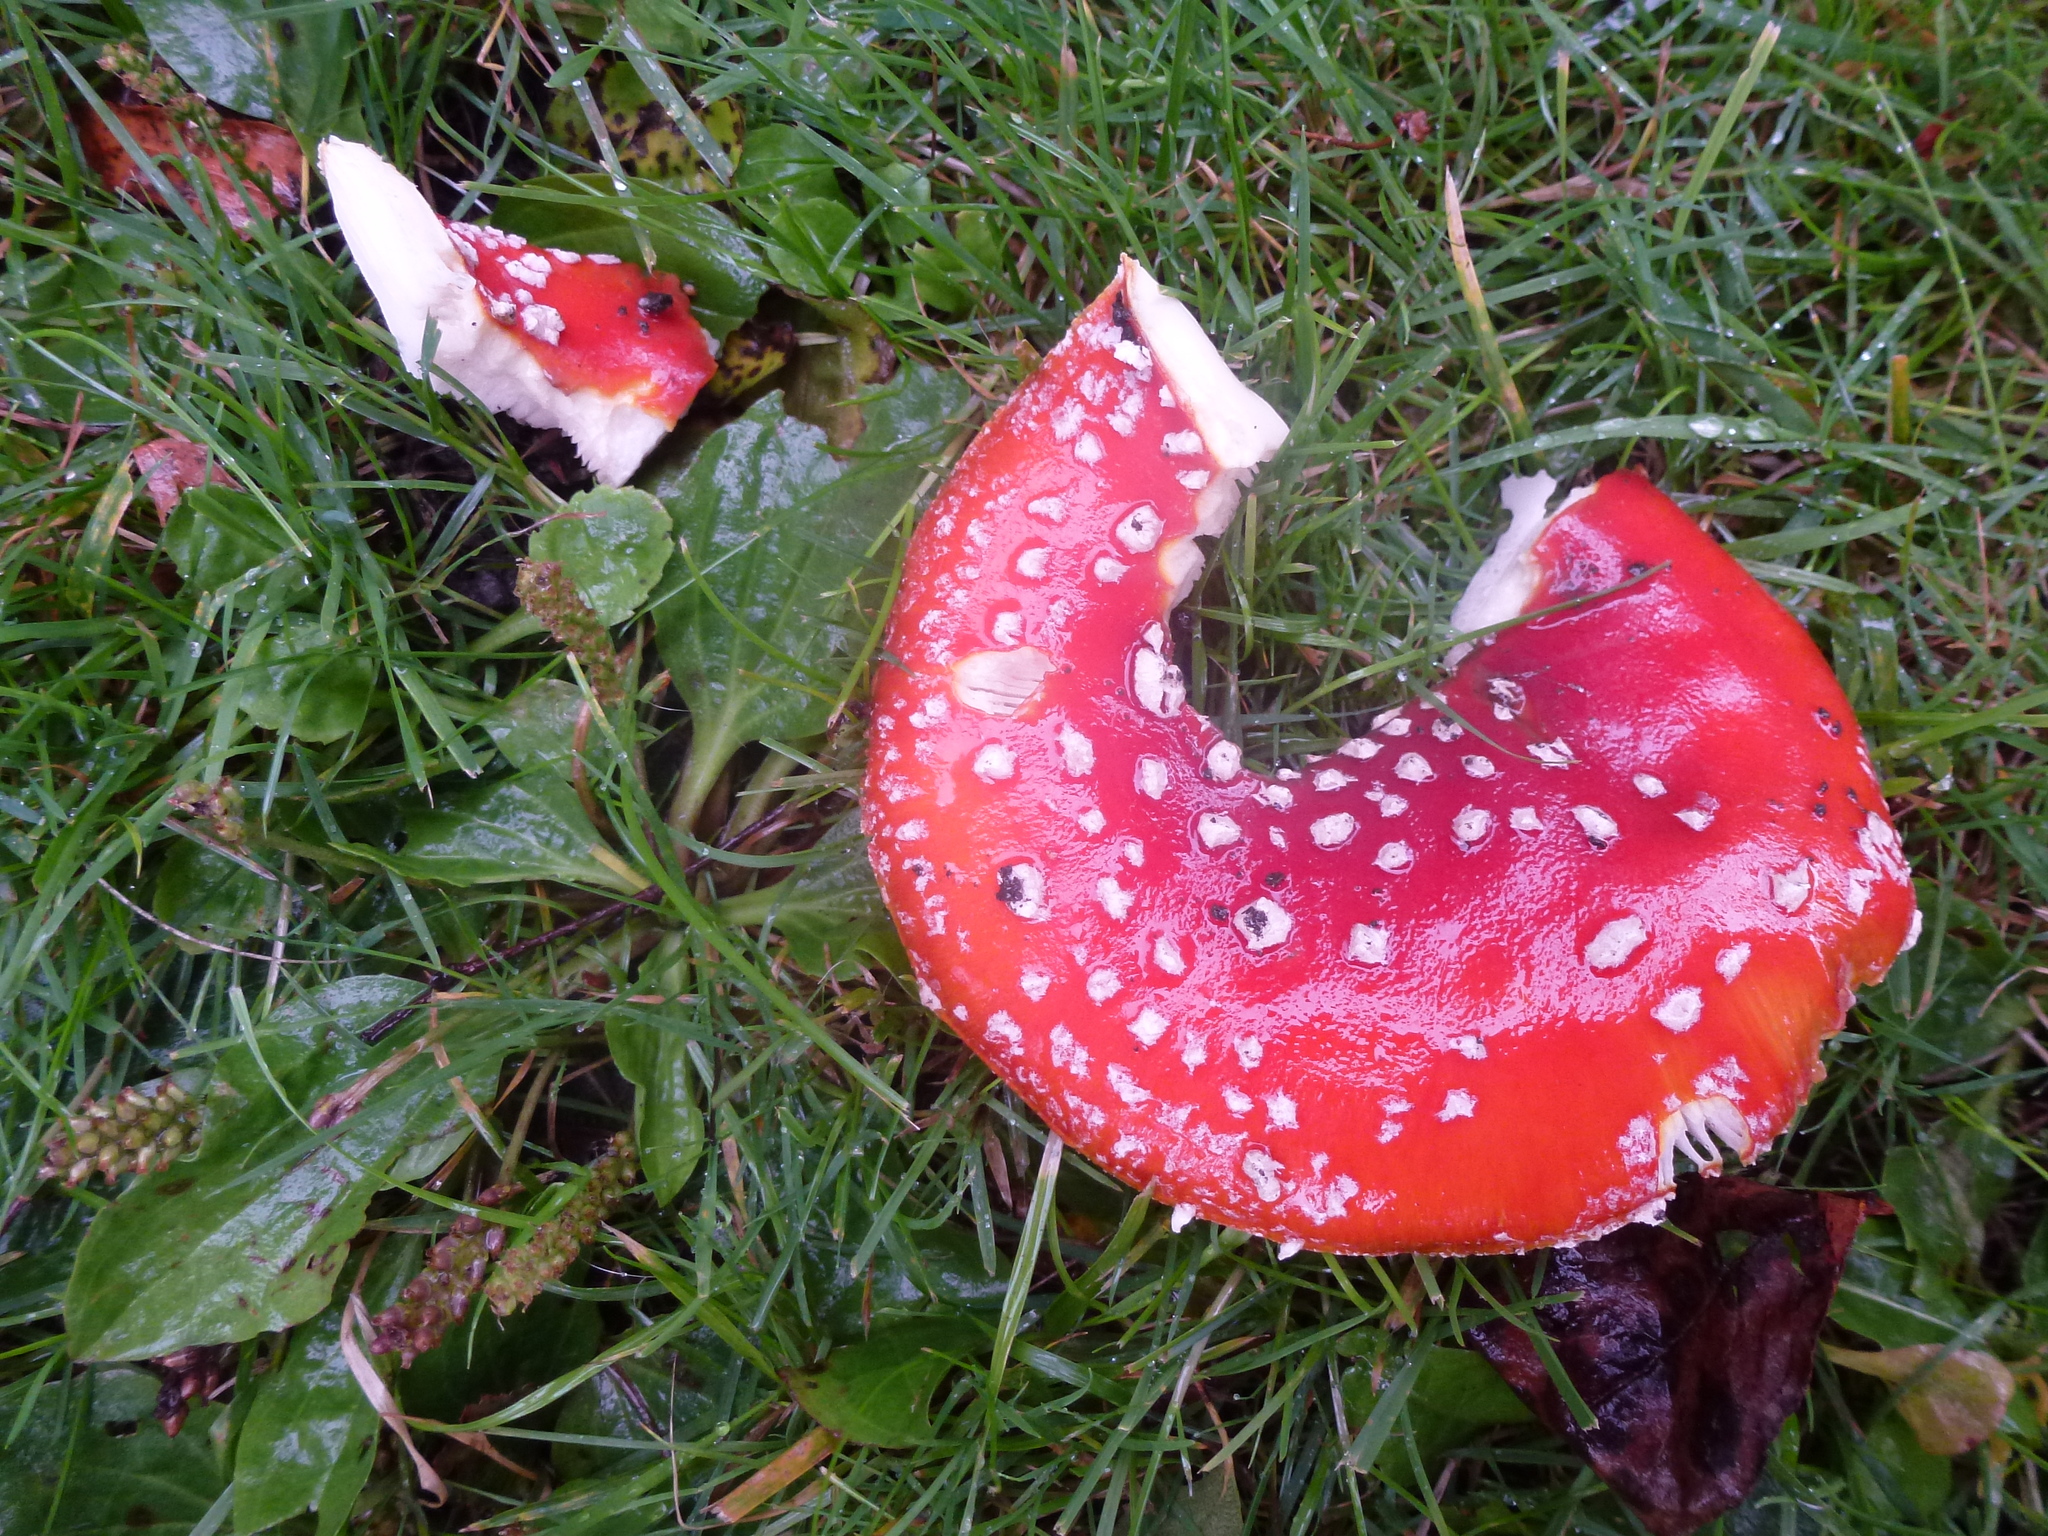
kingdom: Fungi
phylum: Basidiomycota
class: Agaricomycetes
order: Agaricales
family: Amanitaceae
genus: Amanita
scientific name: Amanita muscaria
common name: Fly agaric
